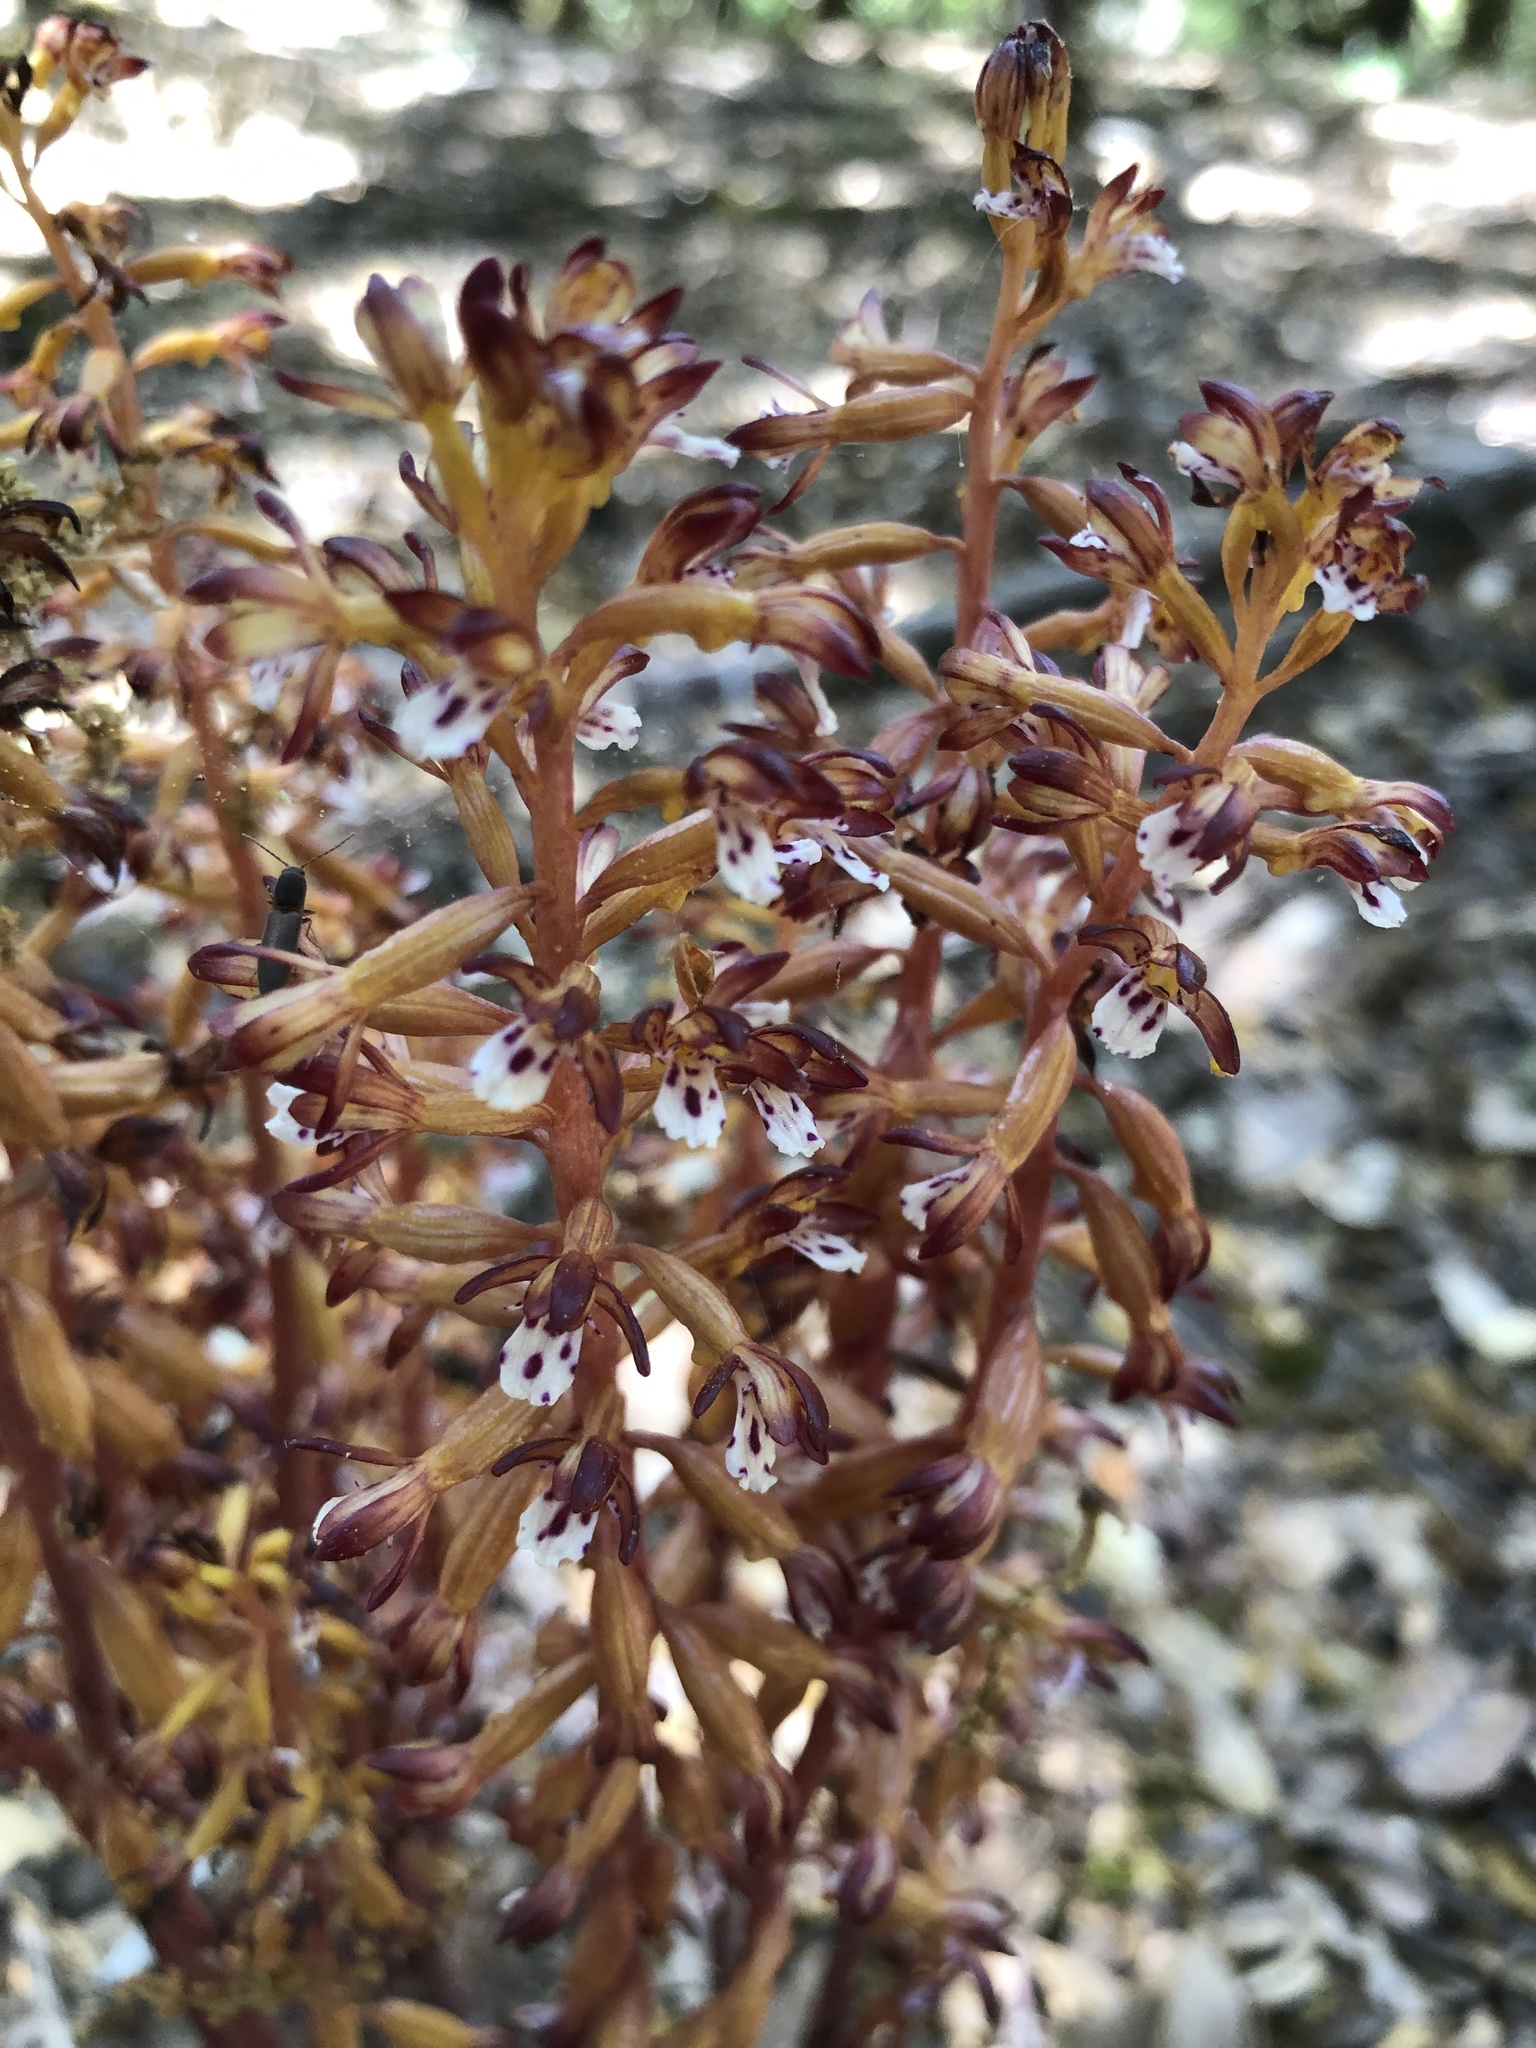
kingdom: Plantae
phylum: Tracheophyta
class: Liliopsida
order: Asparagales
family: Orchidaceae
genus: Corallorhiza
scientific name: Corallorhiza maculata
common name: Spotted coralroot
